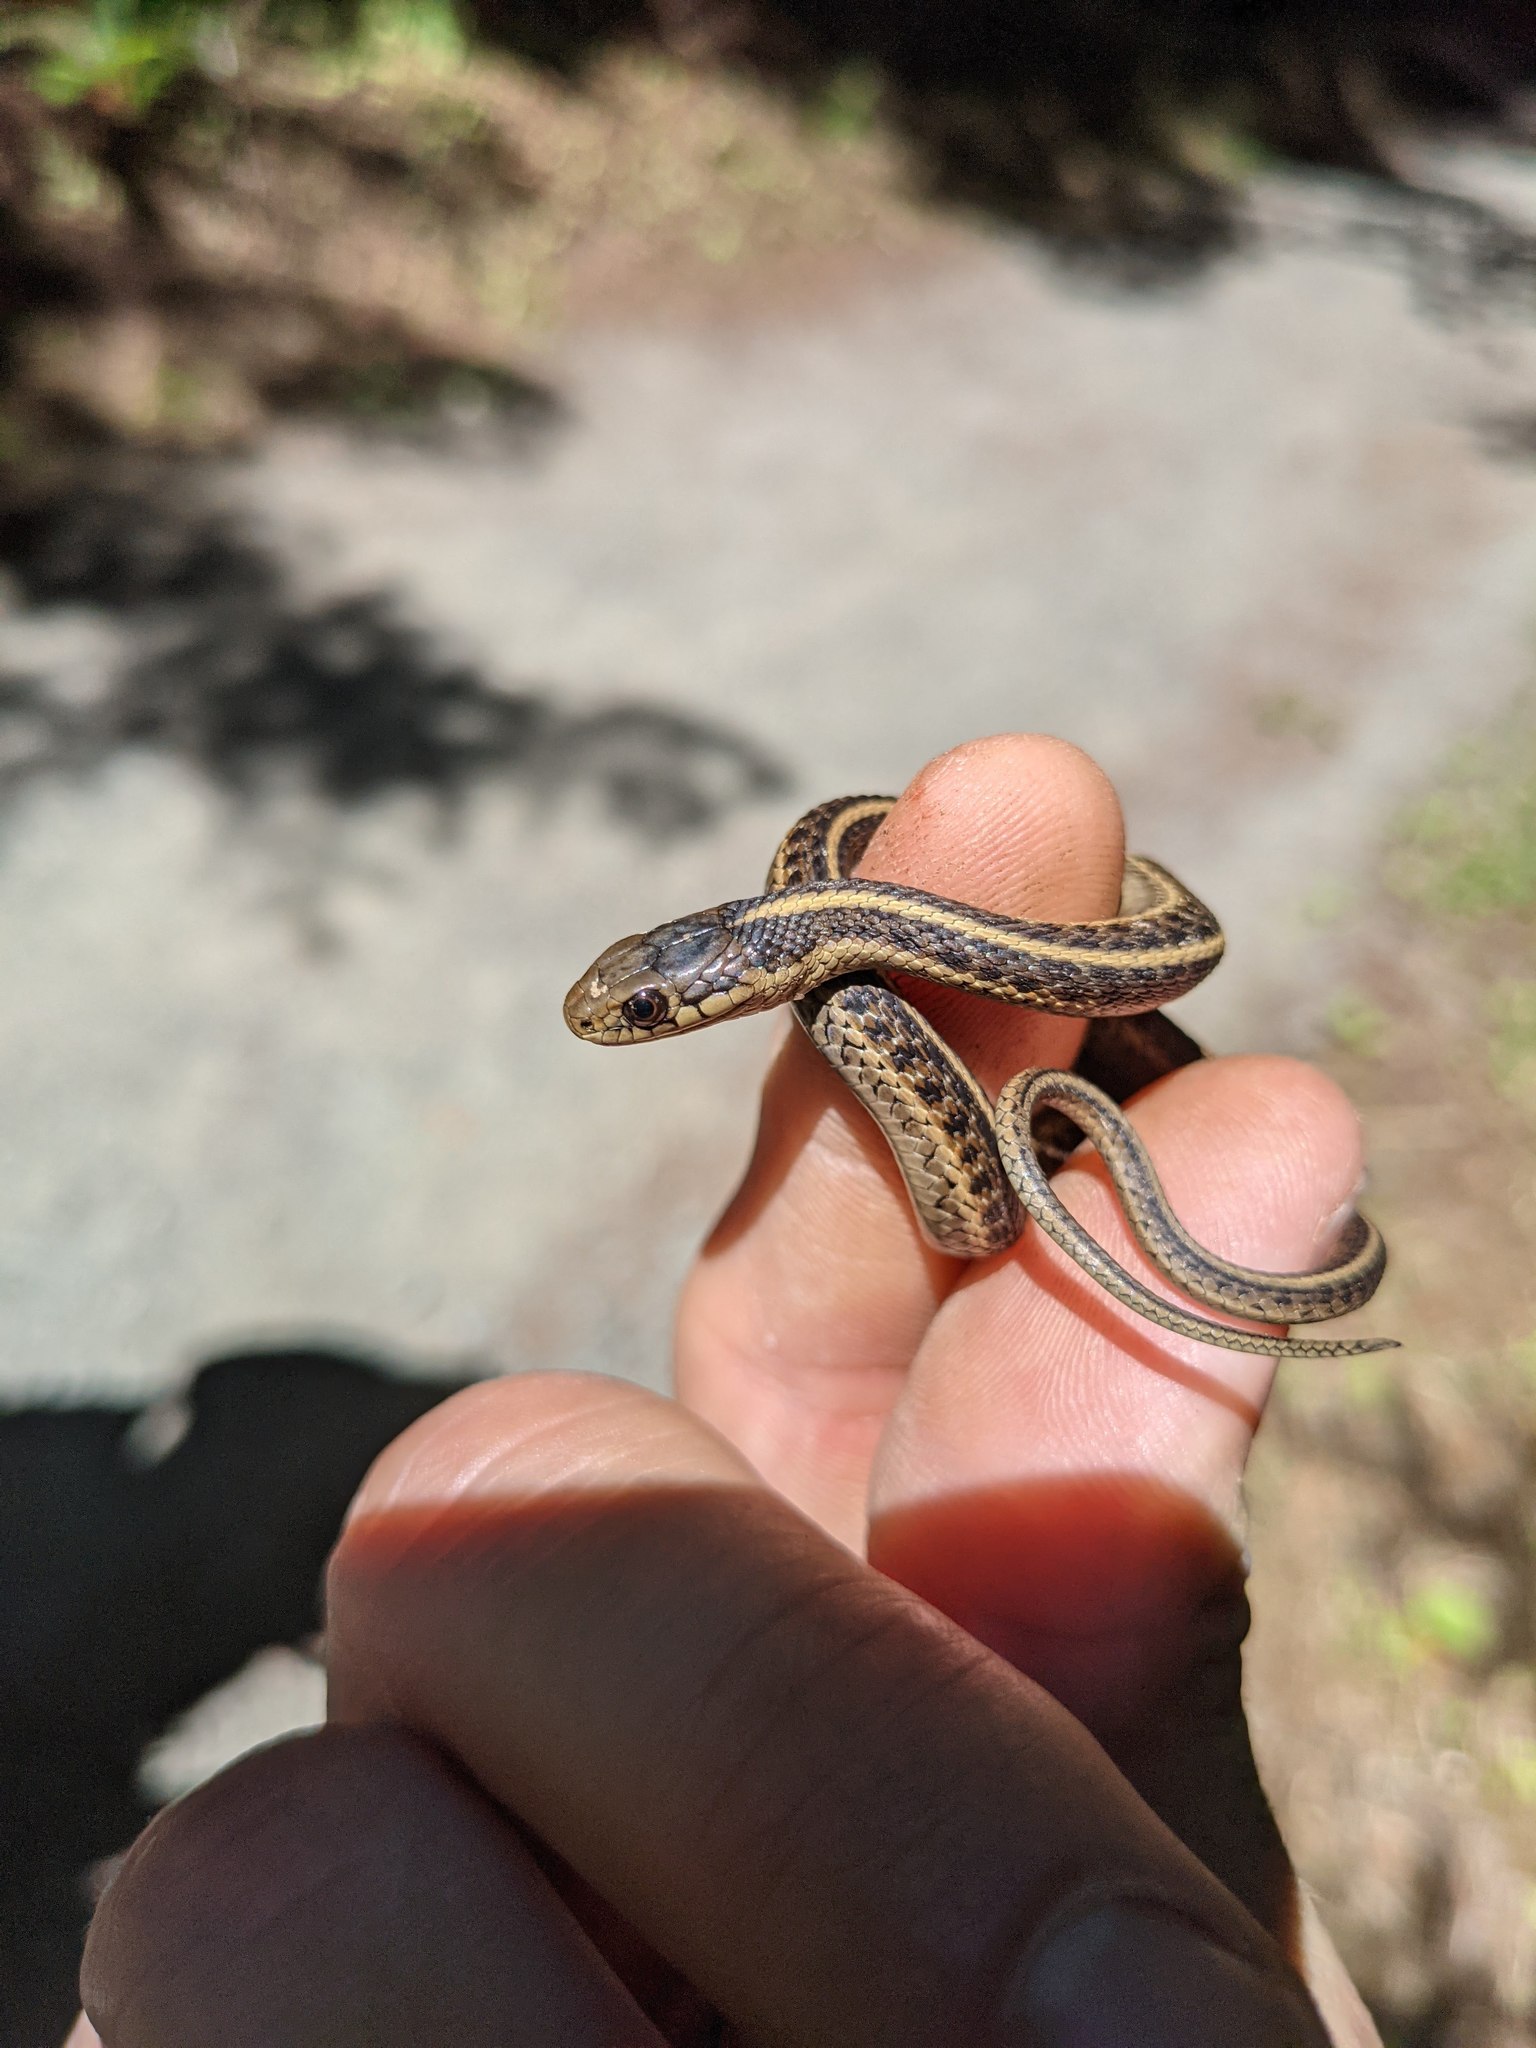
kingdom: Animalia
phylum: Chordata
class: Squamata
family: Colubridae
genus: Thamnophis
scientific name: Thamnophis elegans
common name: Western terrestrial garter snake
